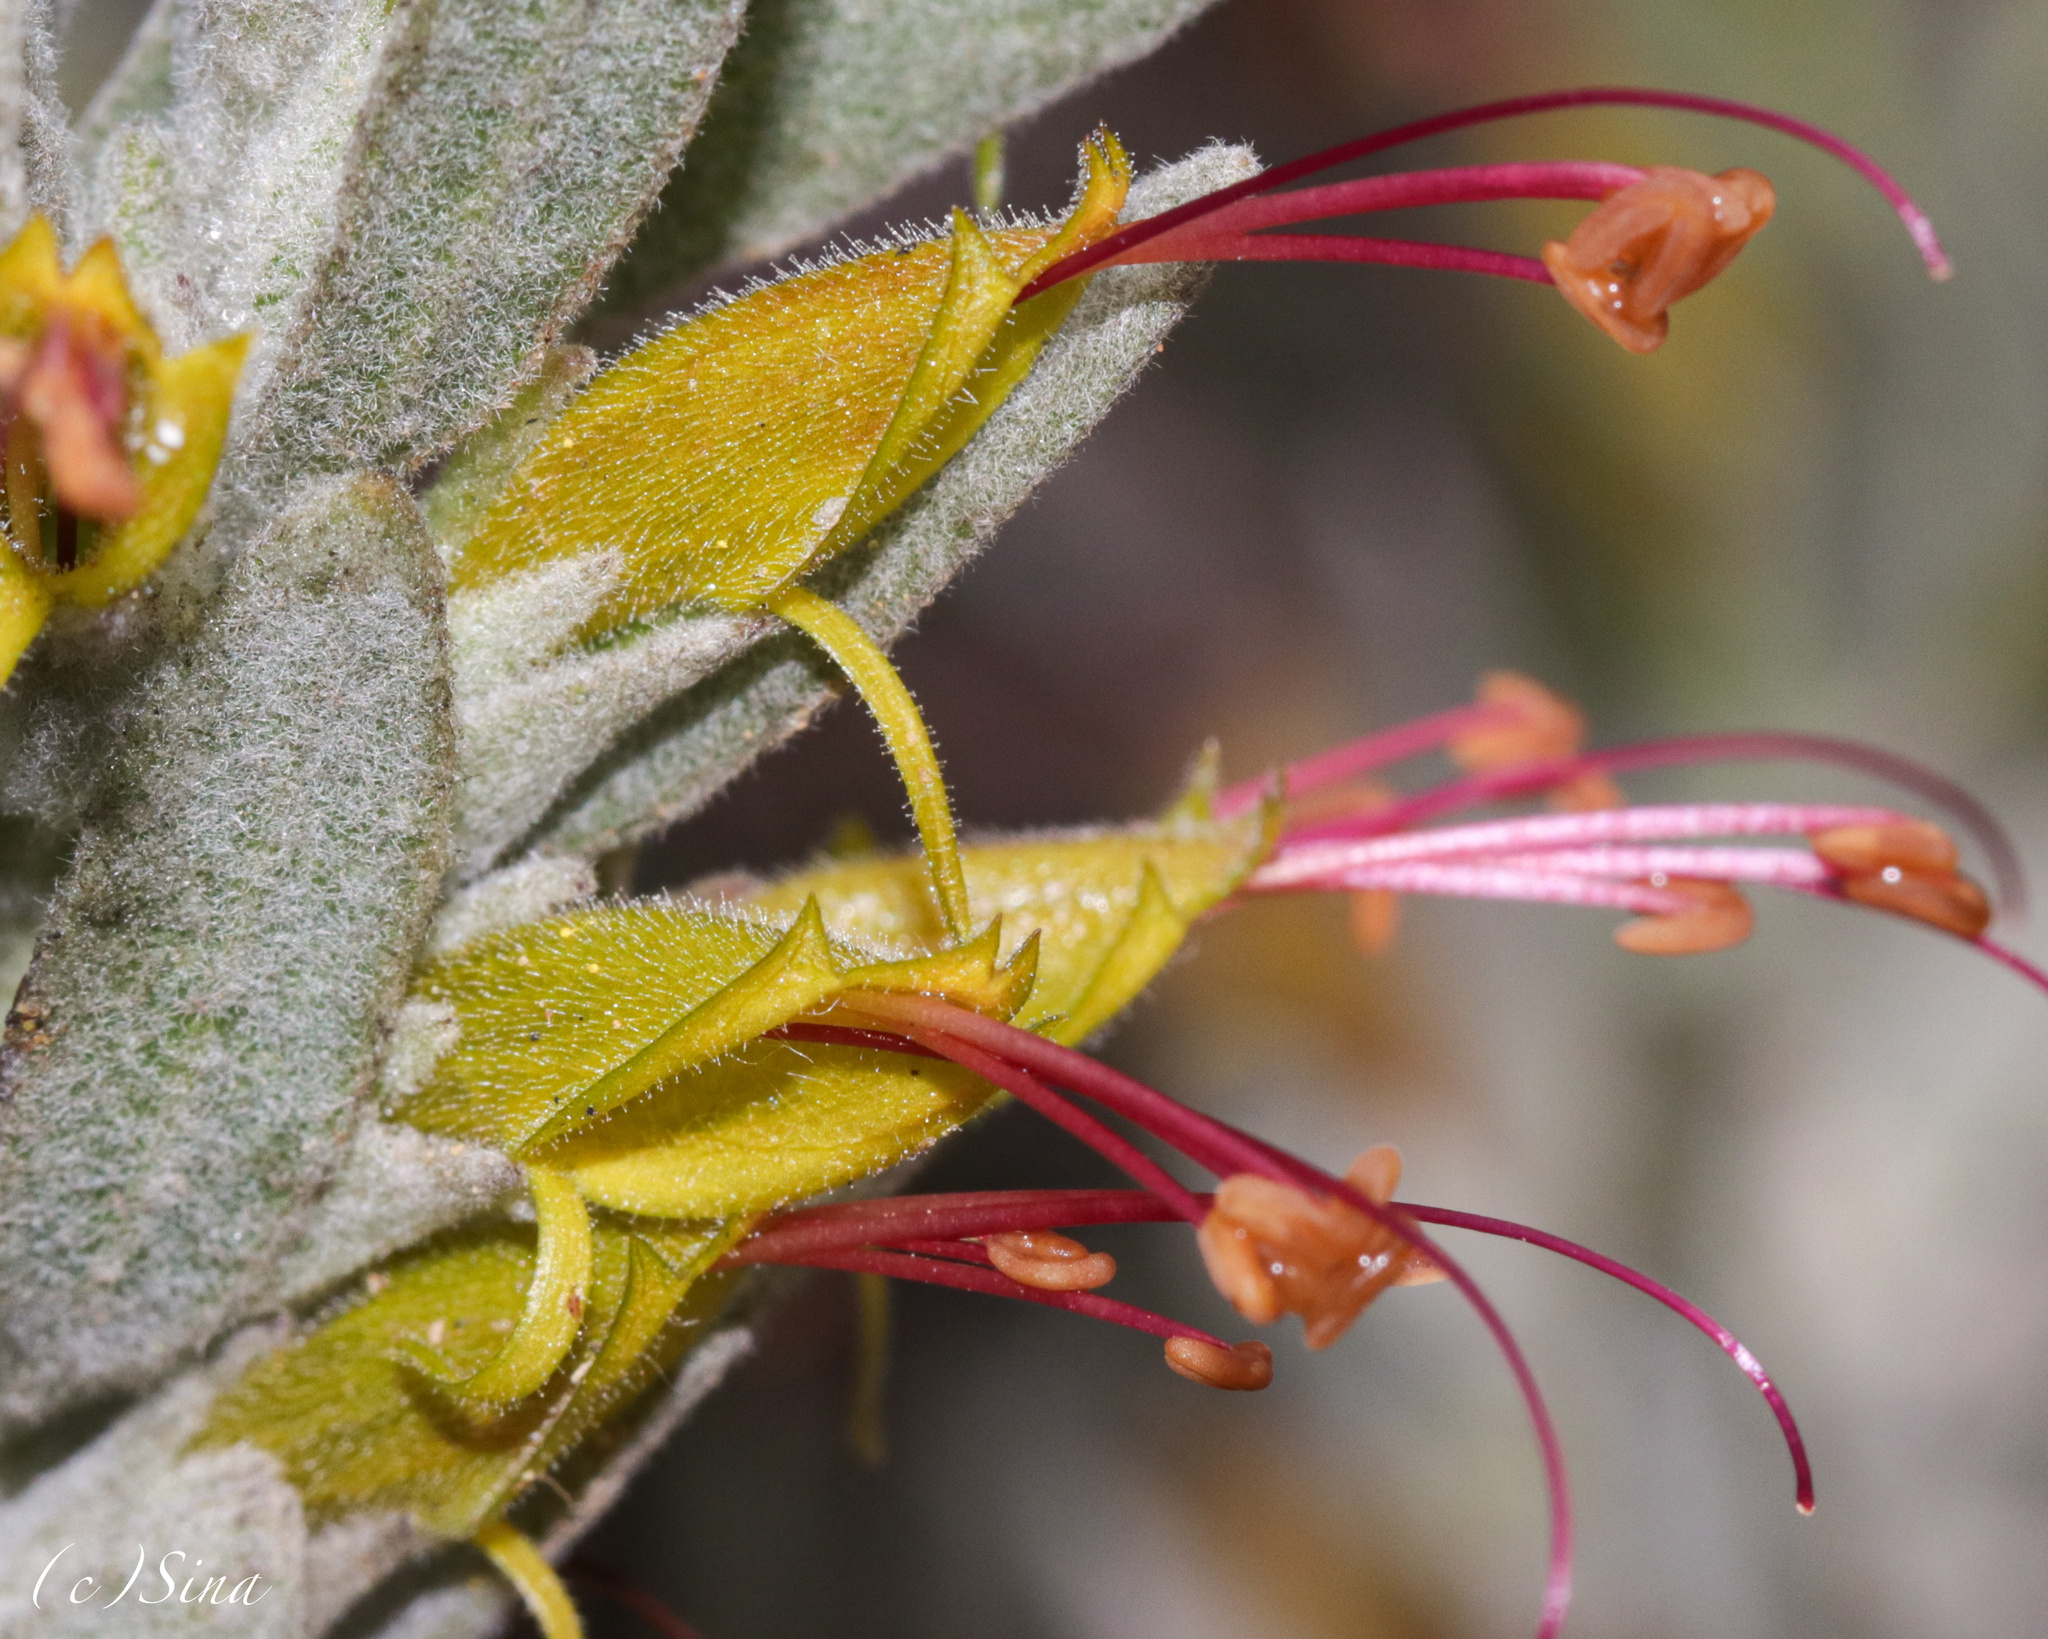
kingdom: Plantae
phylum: Tracheophyta
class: Magnoliopsida
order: Lamiales
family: Scrophulariaceae
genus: Eremophila
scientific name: Eremophila subfloccosa
